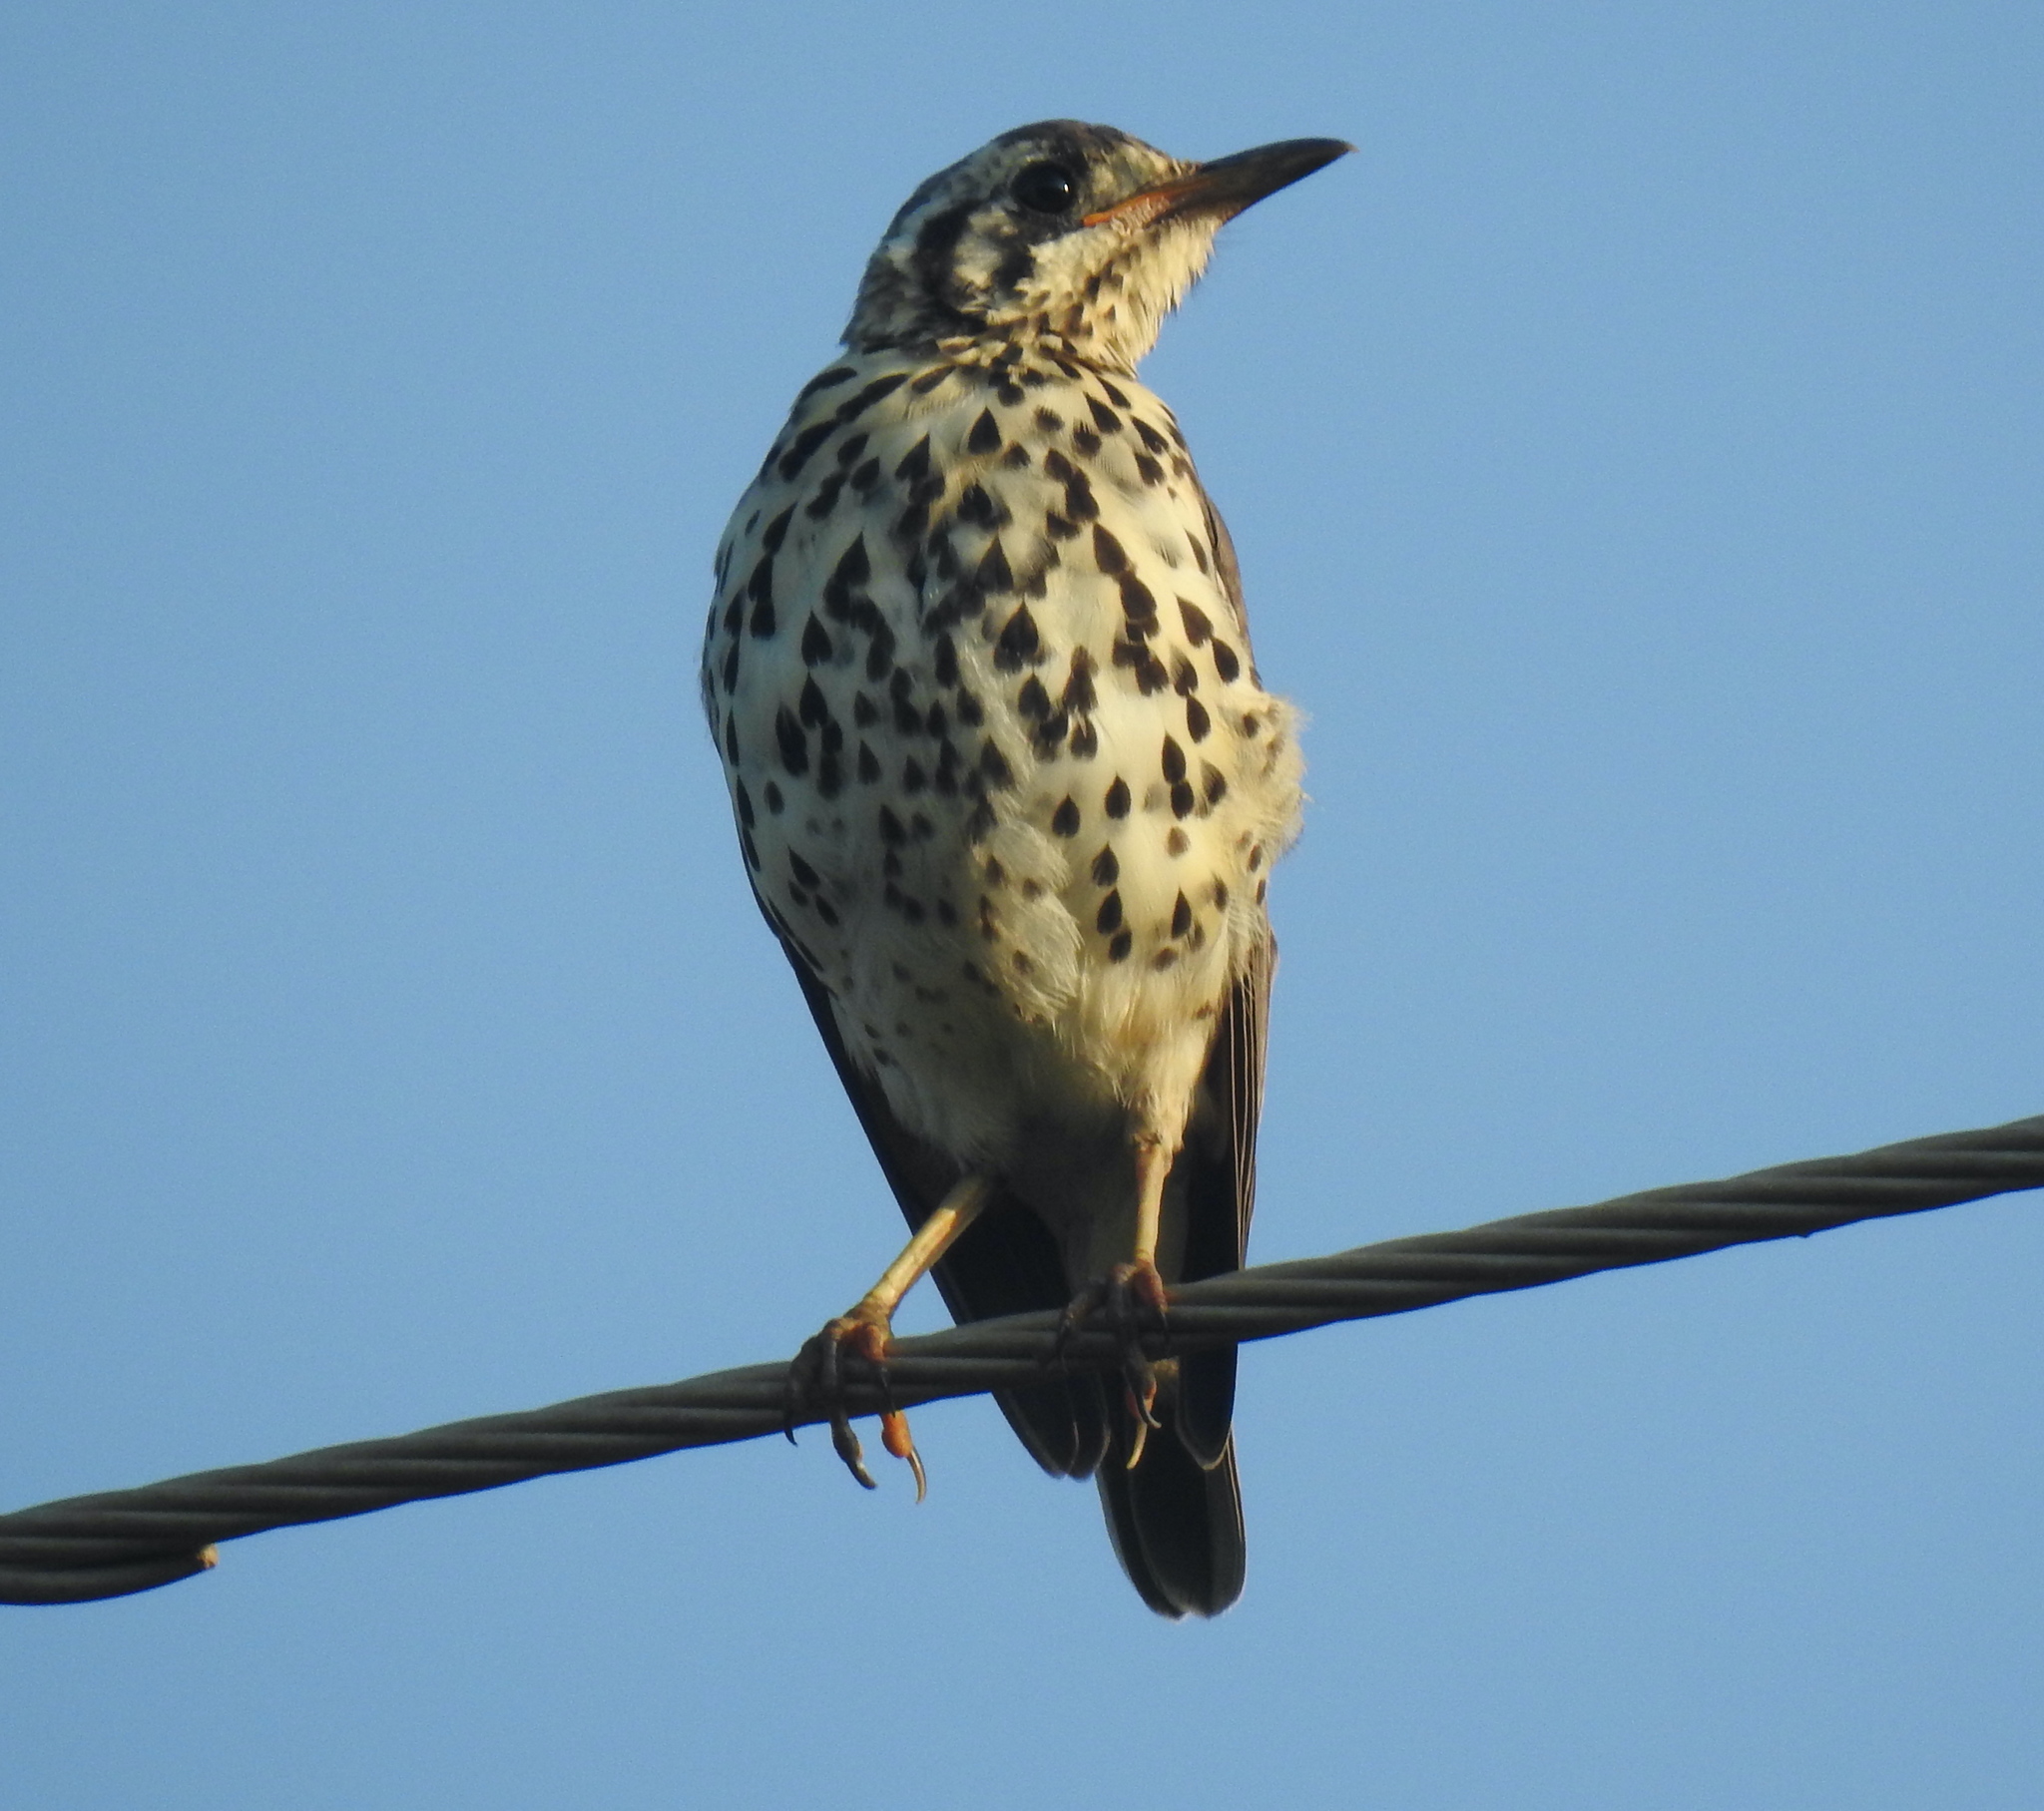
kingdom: Animalia
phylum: Chordata
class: Aves
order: Passeriformes
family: Turdidae
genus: Psophocichla
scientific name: Psophocichla litsitsirupa
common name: Groundscraper thrush
